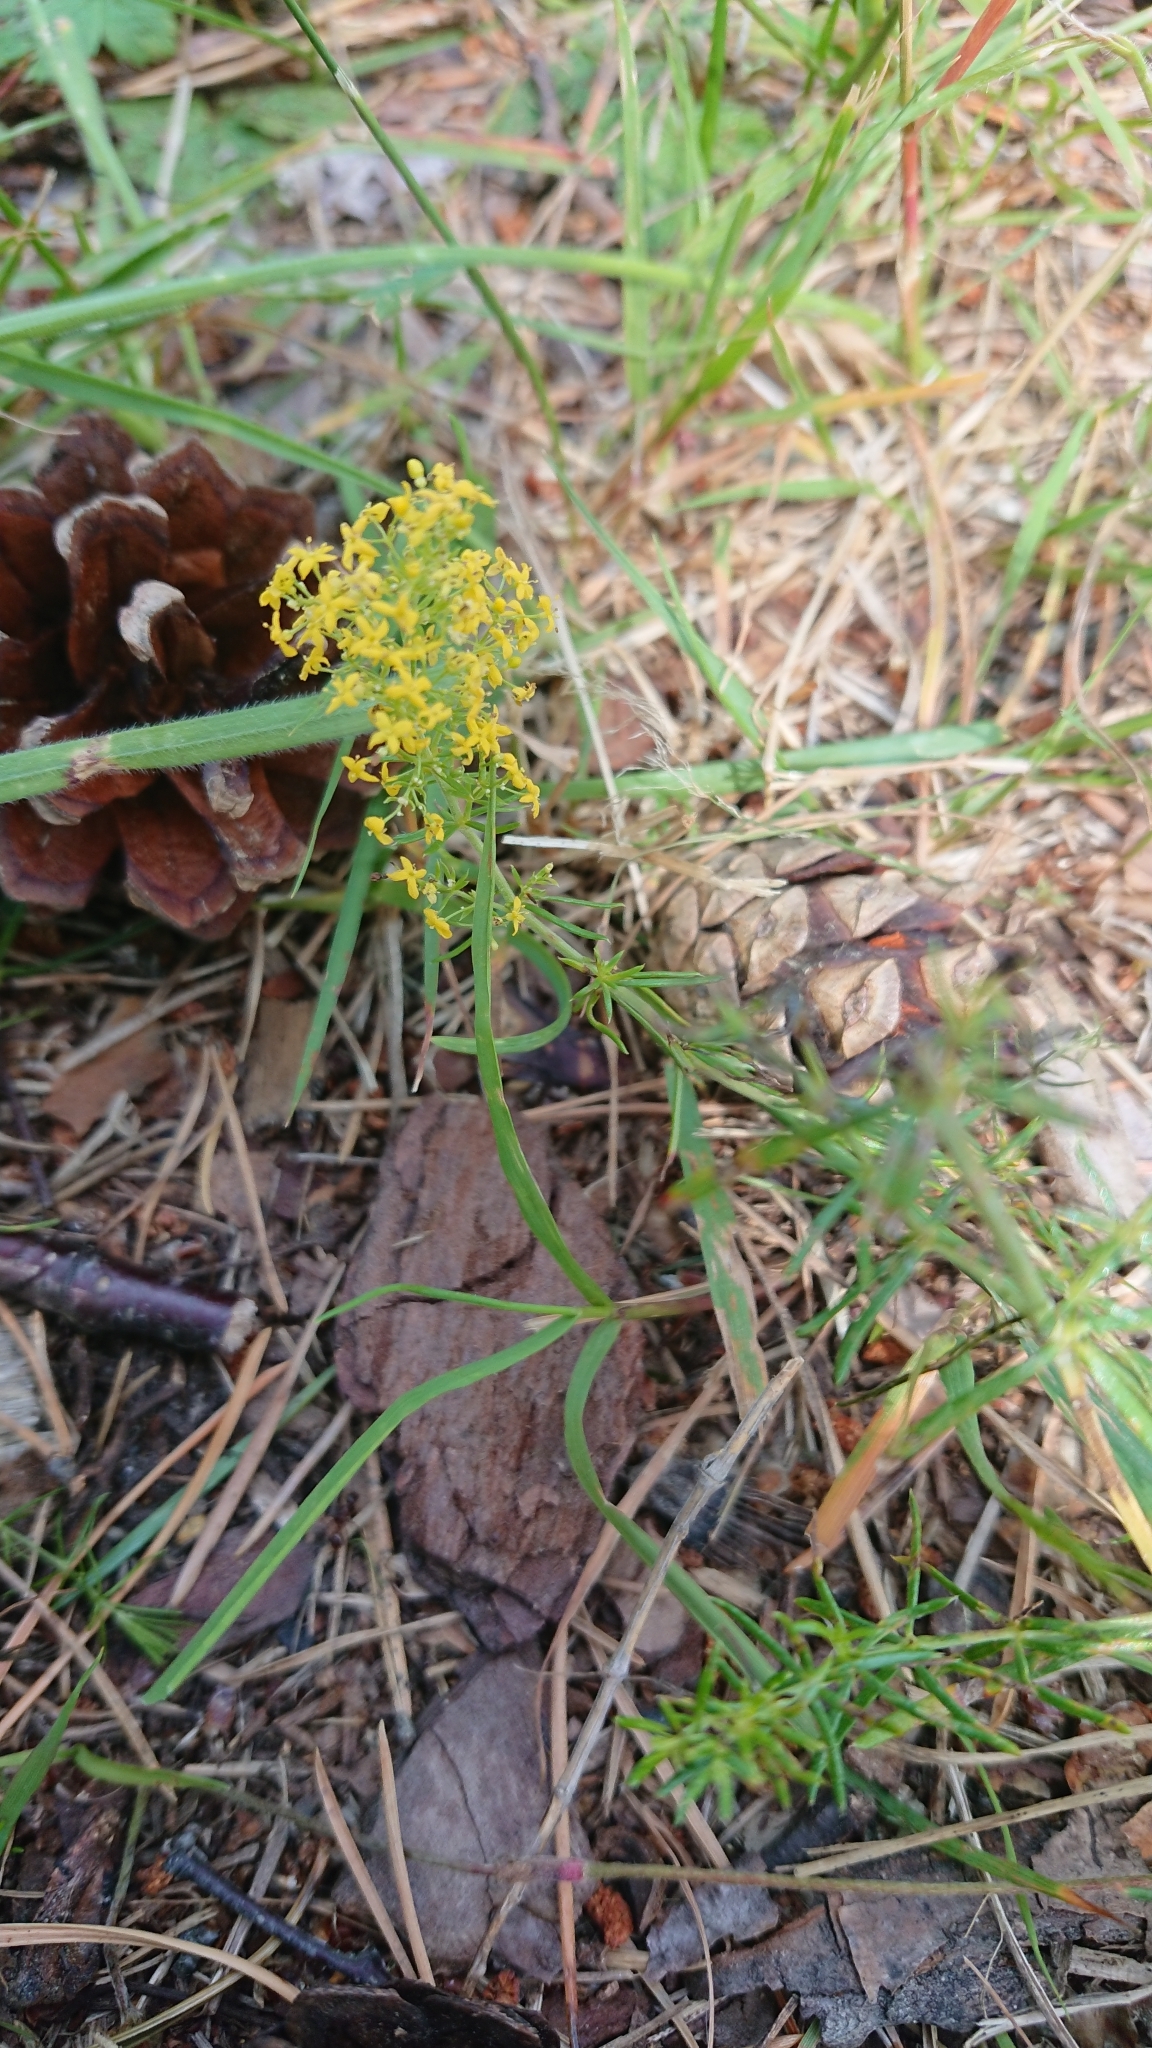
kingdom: Plantae
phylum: Tracheophyta
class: Magnoliopsida
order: Gentianales
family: Rubiaceae
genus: Galium
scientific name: Galium verum
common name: Lady's bedstraw
